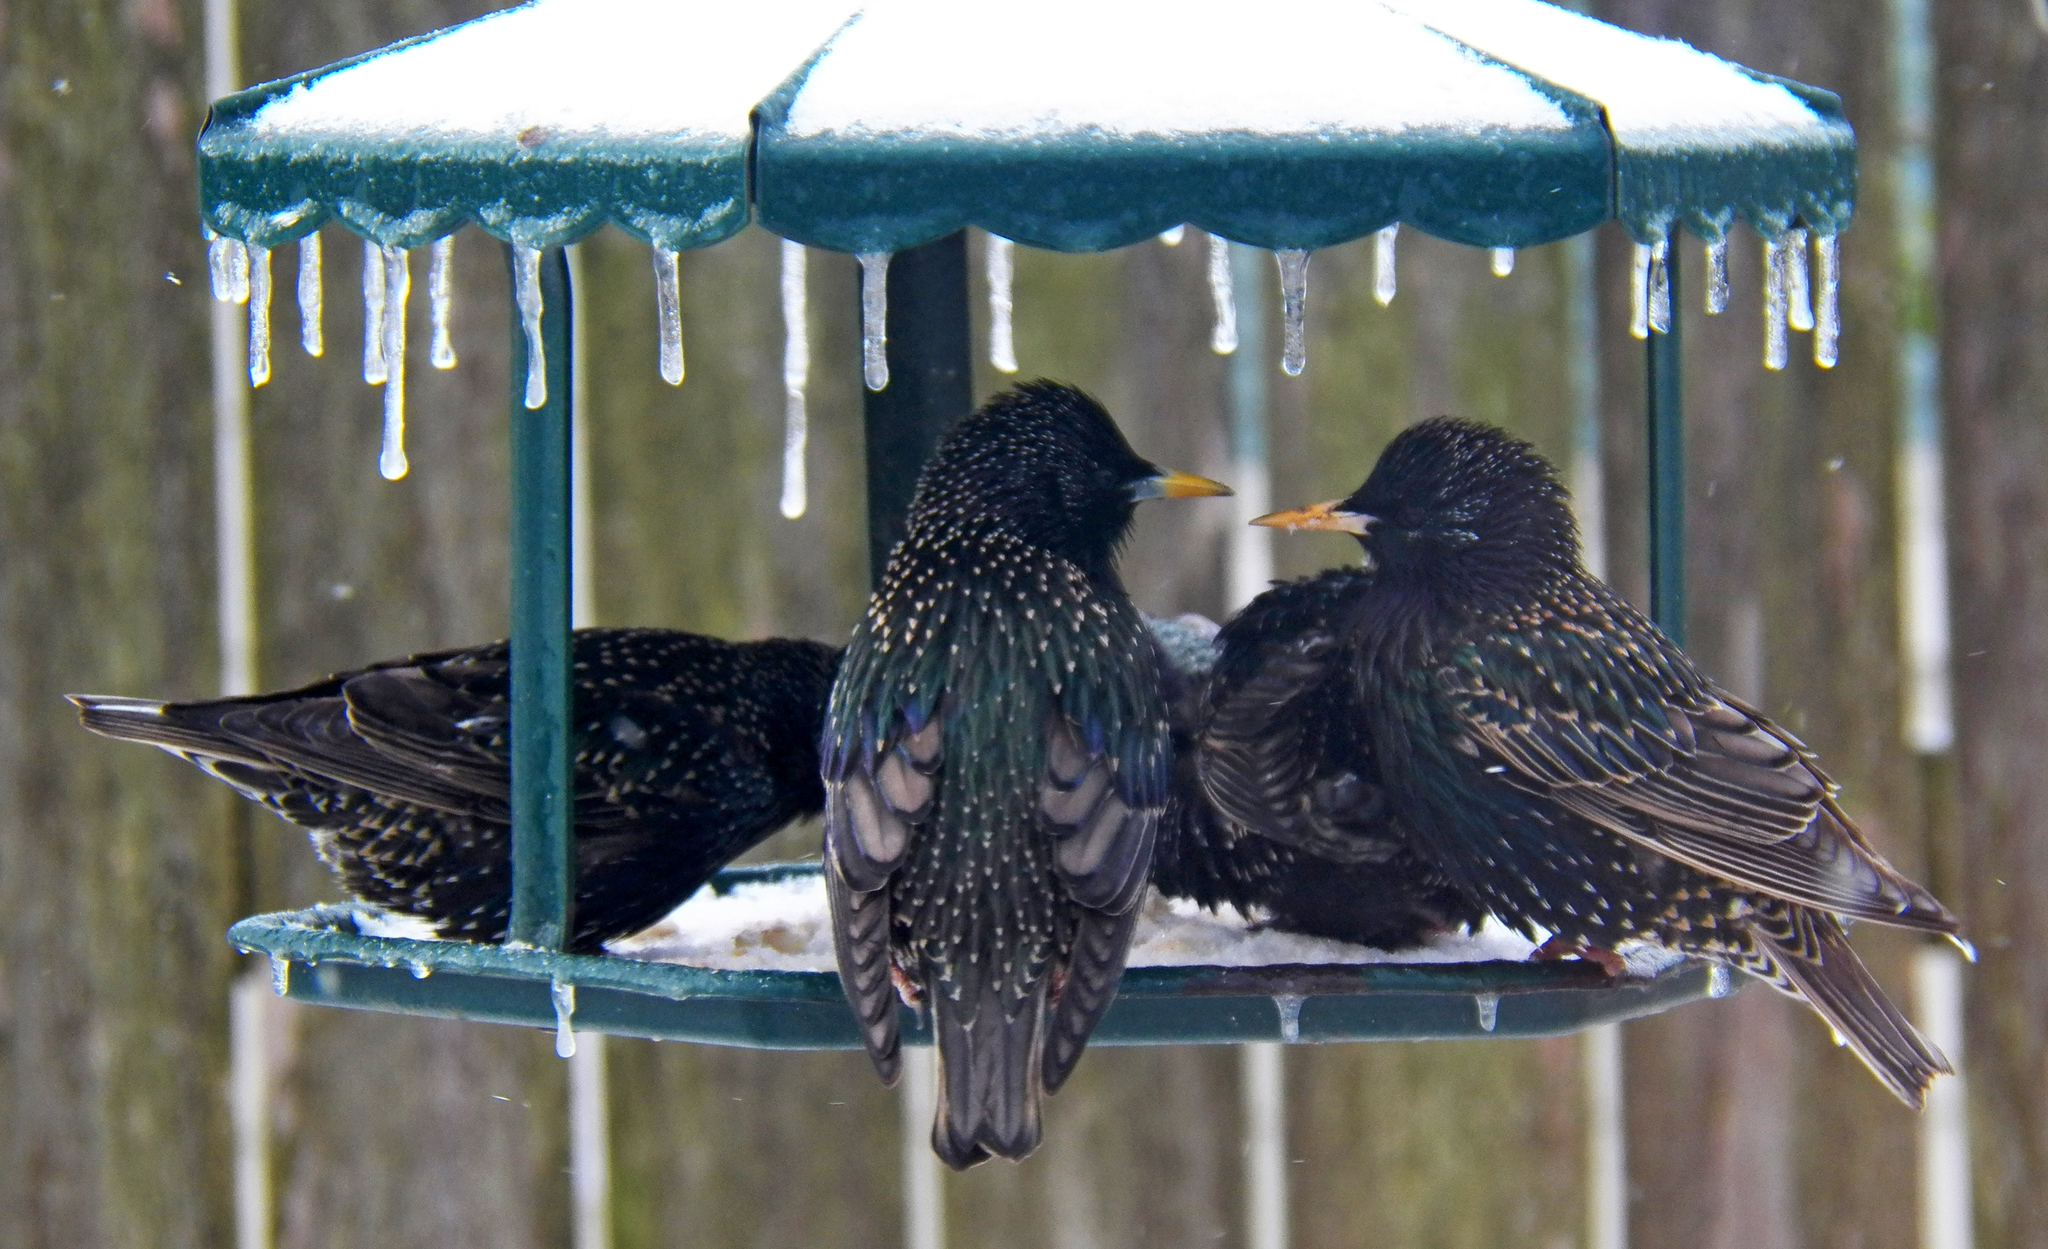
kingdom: Animalia
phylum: Chordata
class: Aves
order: Passeriformes
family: Sturnidae
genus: Sturnus
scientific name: Sturnus vulgaris
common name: Common starling
